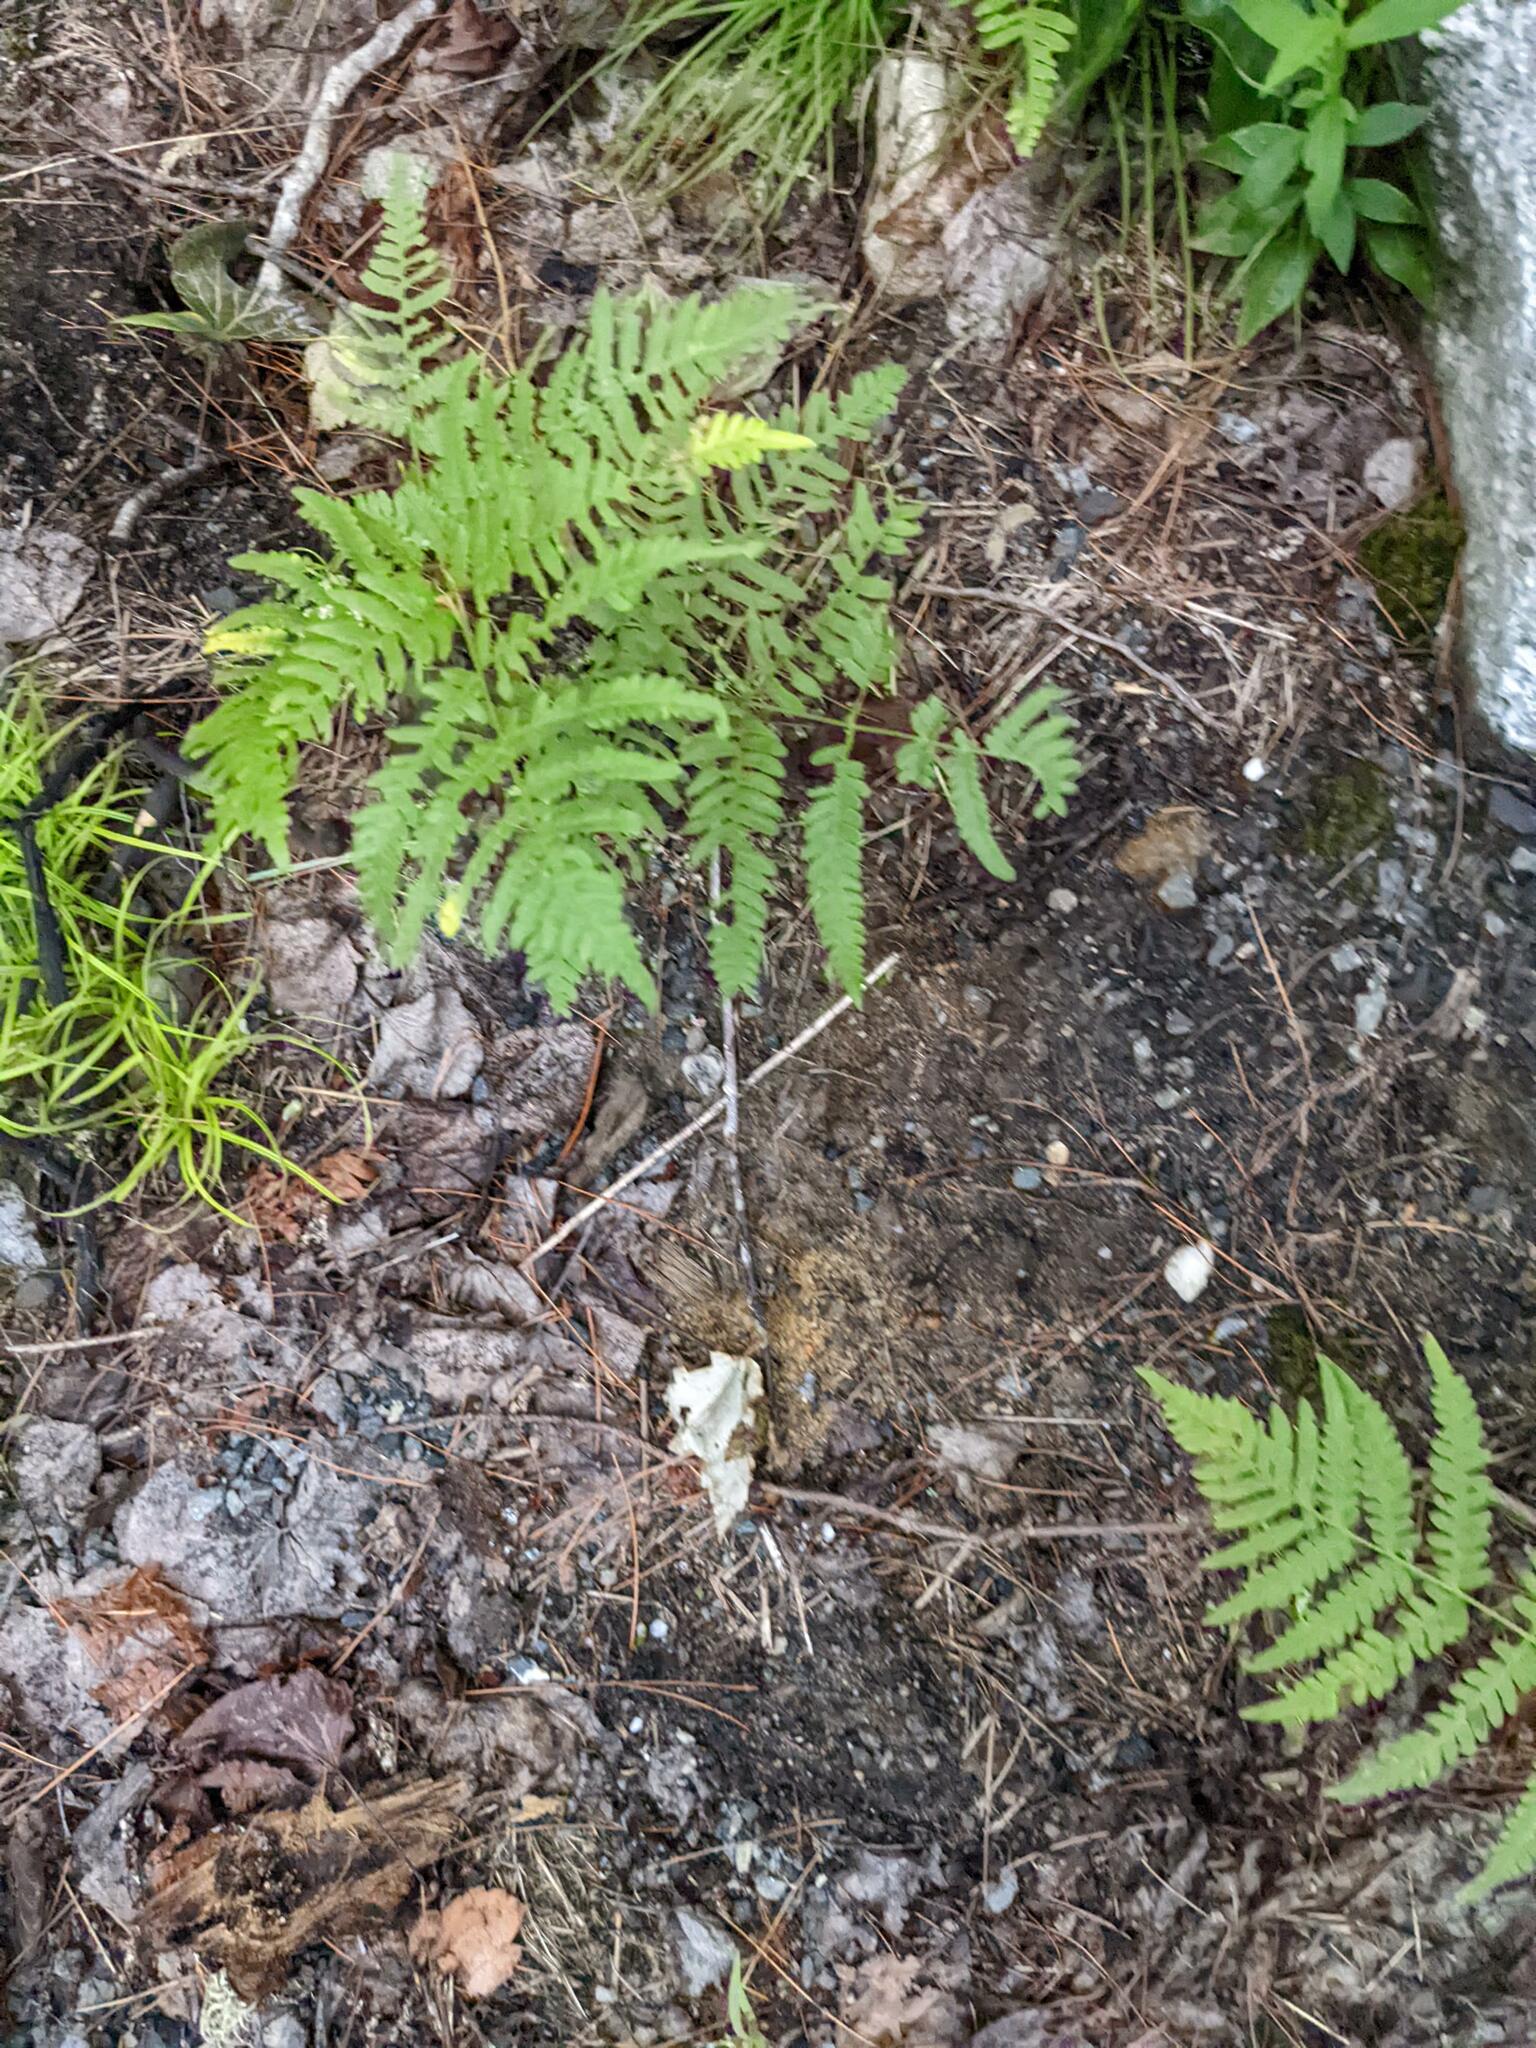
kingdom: Plantae
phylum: Tracheophyta
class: Polypodiopsida
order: Polypodiales
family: Dennstaedtiaceae
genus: Pteridium
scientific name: Pteridium aquilinum
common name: Bracken
